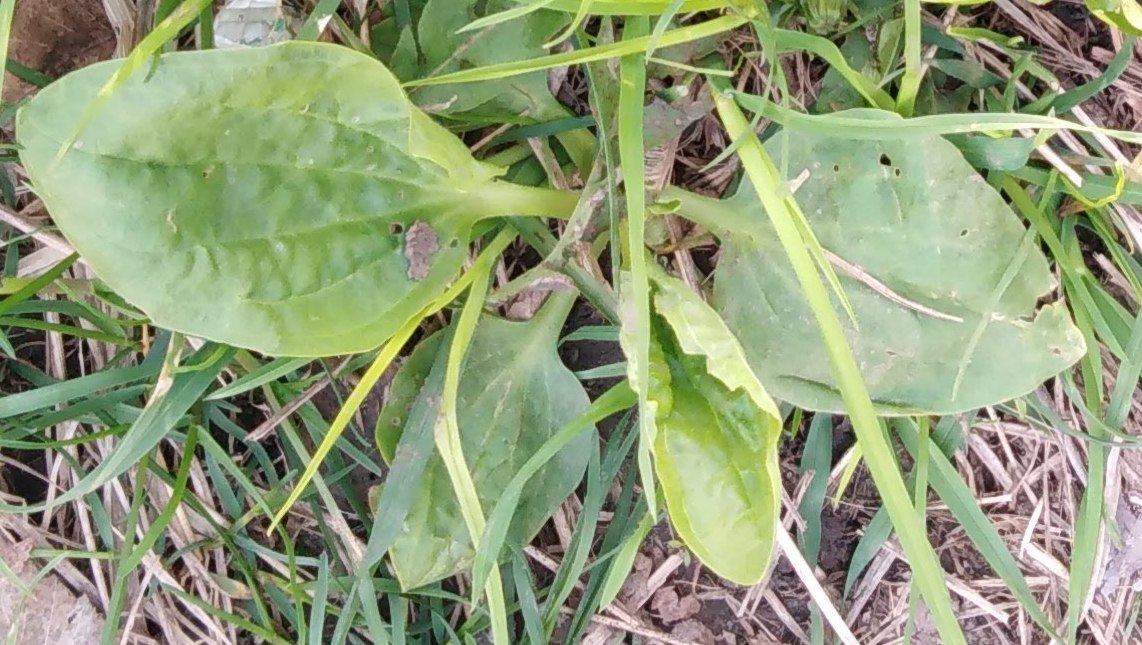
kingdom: Plantae
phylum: Tracheophyta
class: Magnoliopsida
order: Lamiales
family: Plantaginaceae
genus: Plantago
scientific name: Plantago major
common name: Common plantain
